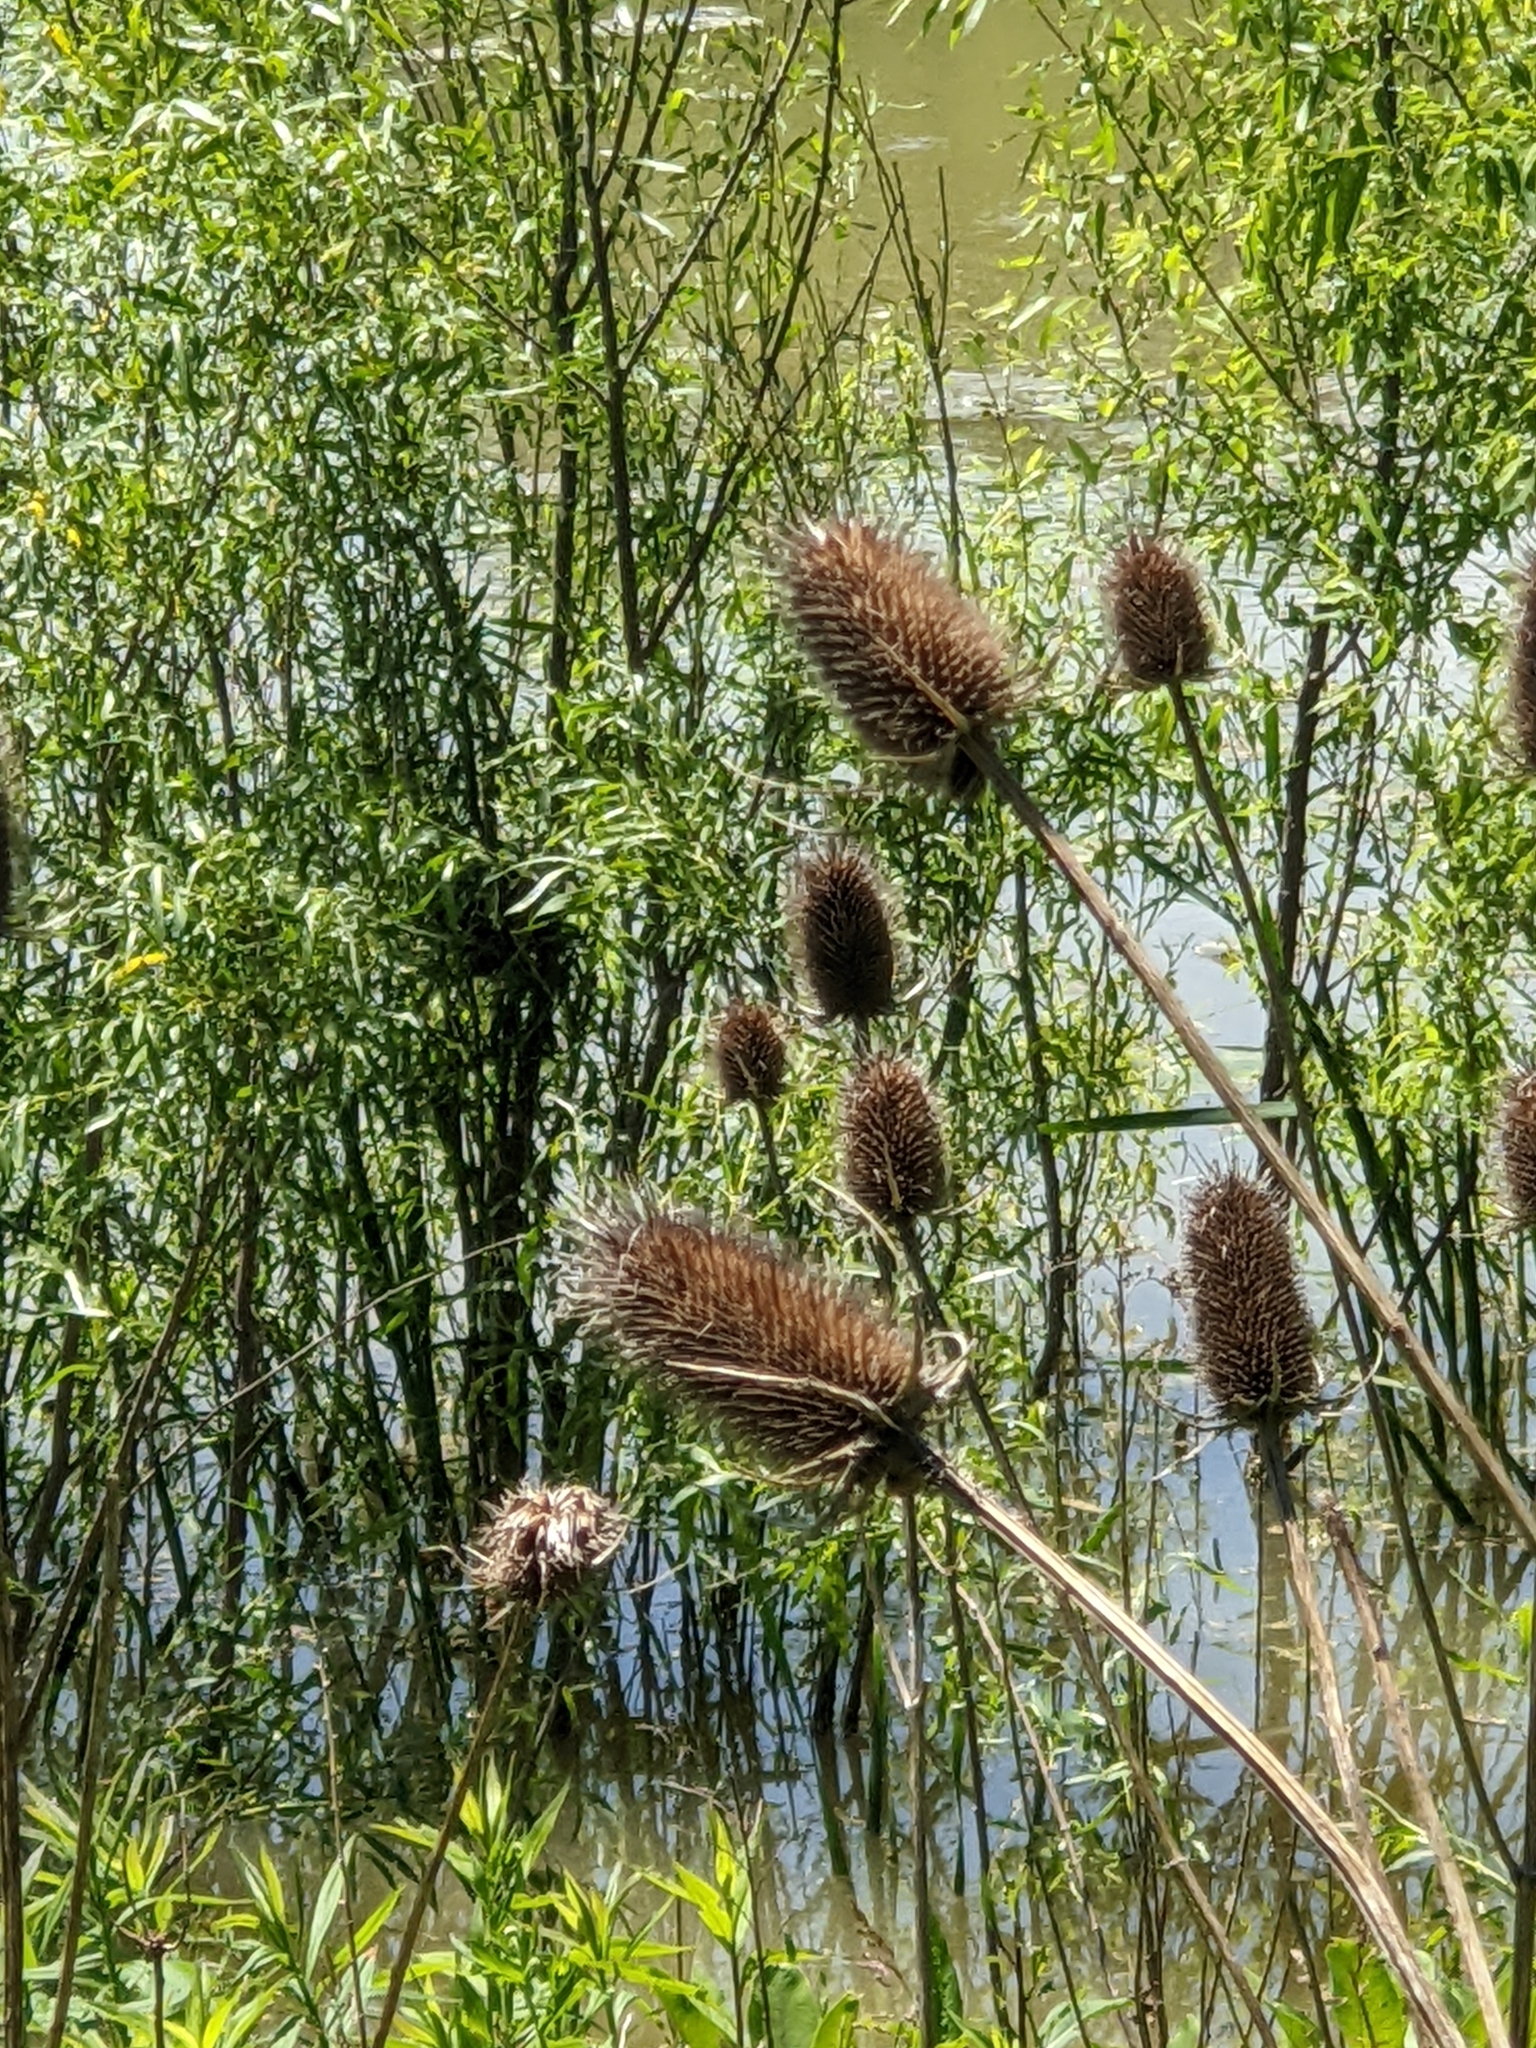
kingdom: Plantae
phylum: Tracheophyta
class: Magnoliopsida
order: Dipsacales
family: Caprifoliaceae
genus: Dipsacus
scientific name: Dipsacus fullonum
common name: Teasel
